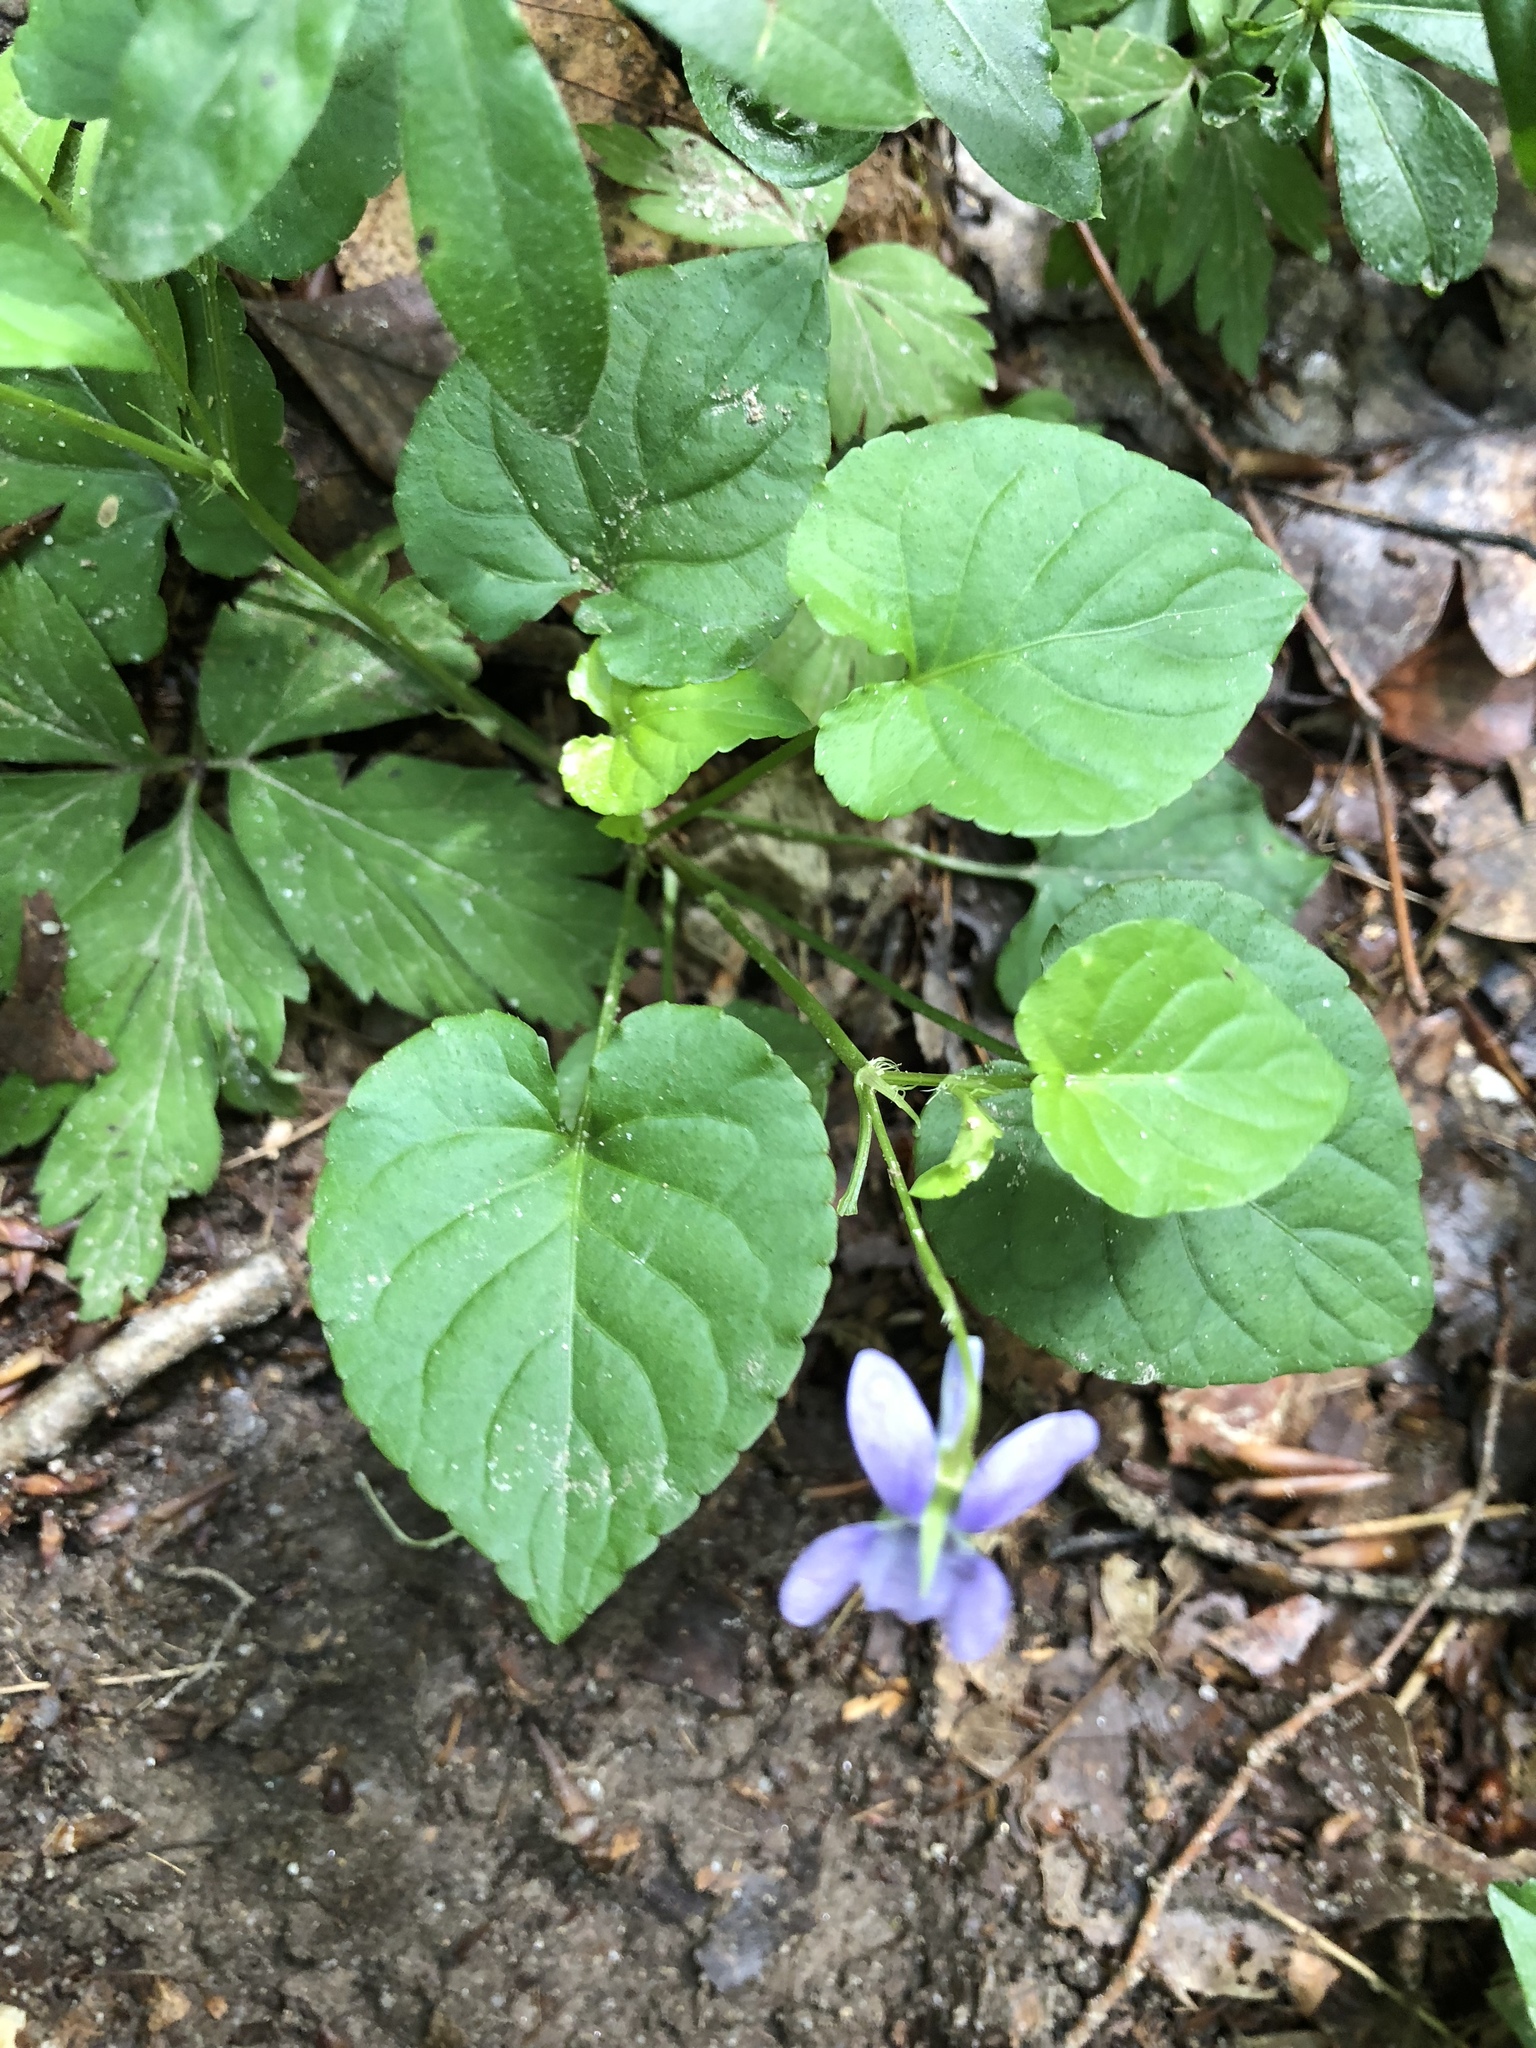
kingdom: Plantae
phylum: Tracheophyta
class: Magnoliopsida
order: Malpighiales
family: Violaceae
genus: Viola
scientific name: Viola odorata
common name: Sweet violet
